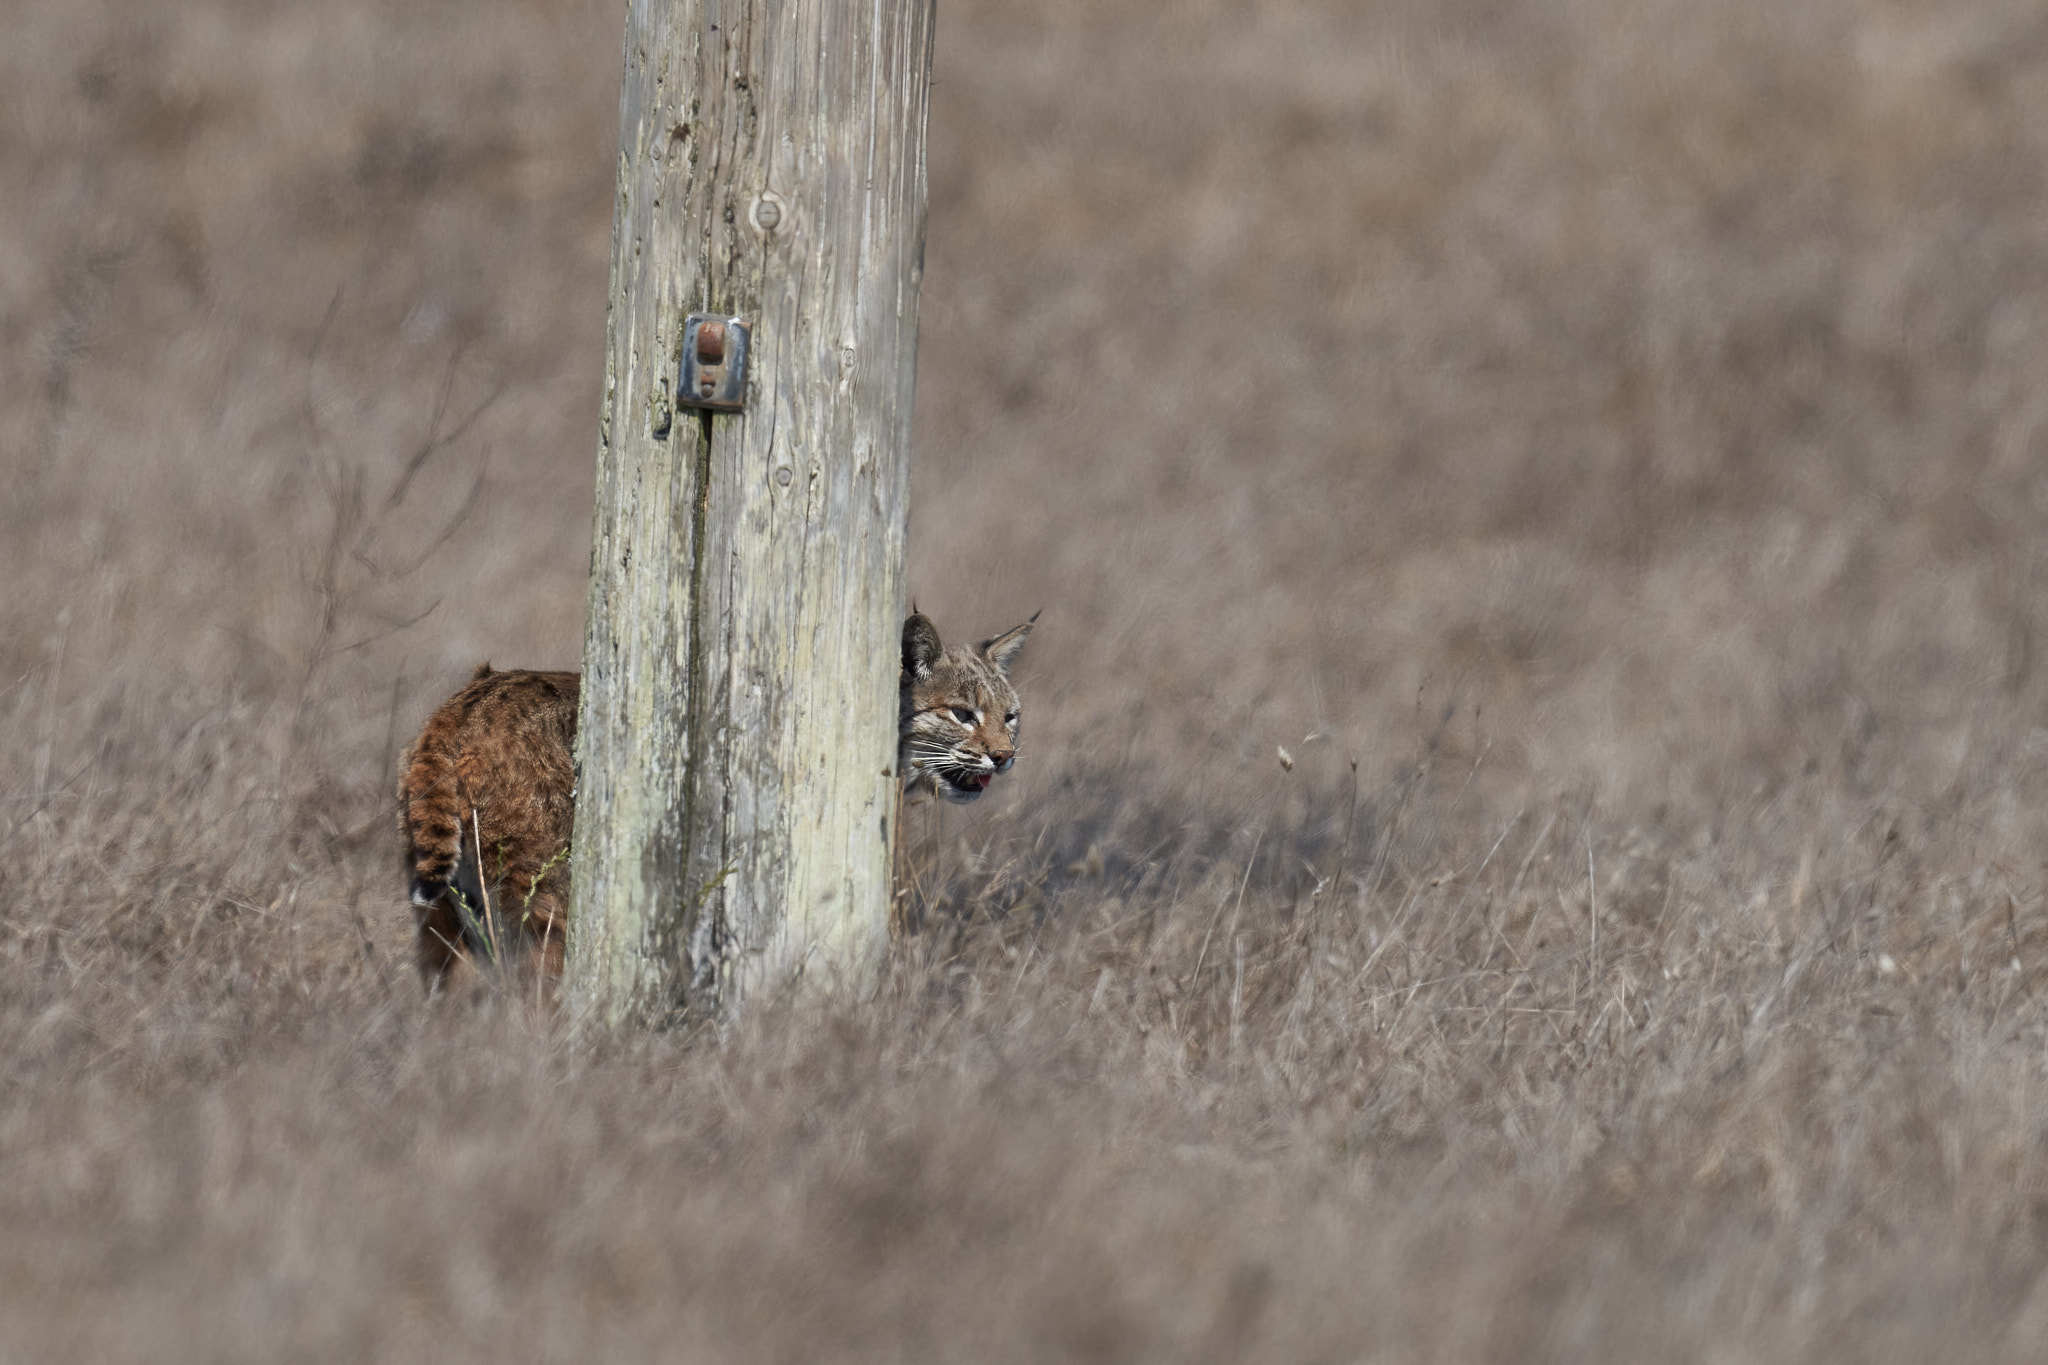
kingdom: Animalia
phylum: Chordata
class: Mammalia
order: Carnivora
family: Felidae
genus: Lynx
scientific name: Lynx rufus
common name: Bobcat
